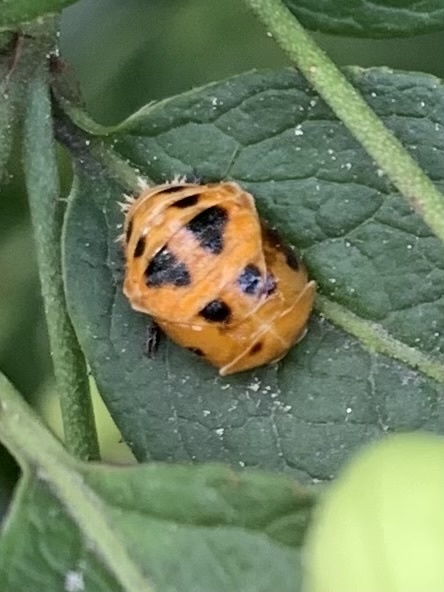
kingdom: Animalia
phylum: Arthropoda
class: Insecta
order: Coleoptera
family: Coccinellidae
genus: Harmonia
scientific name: Harmonia axyridis
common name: Harlequin ladybird
